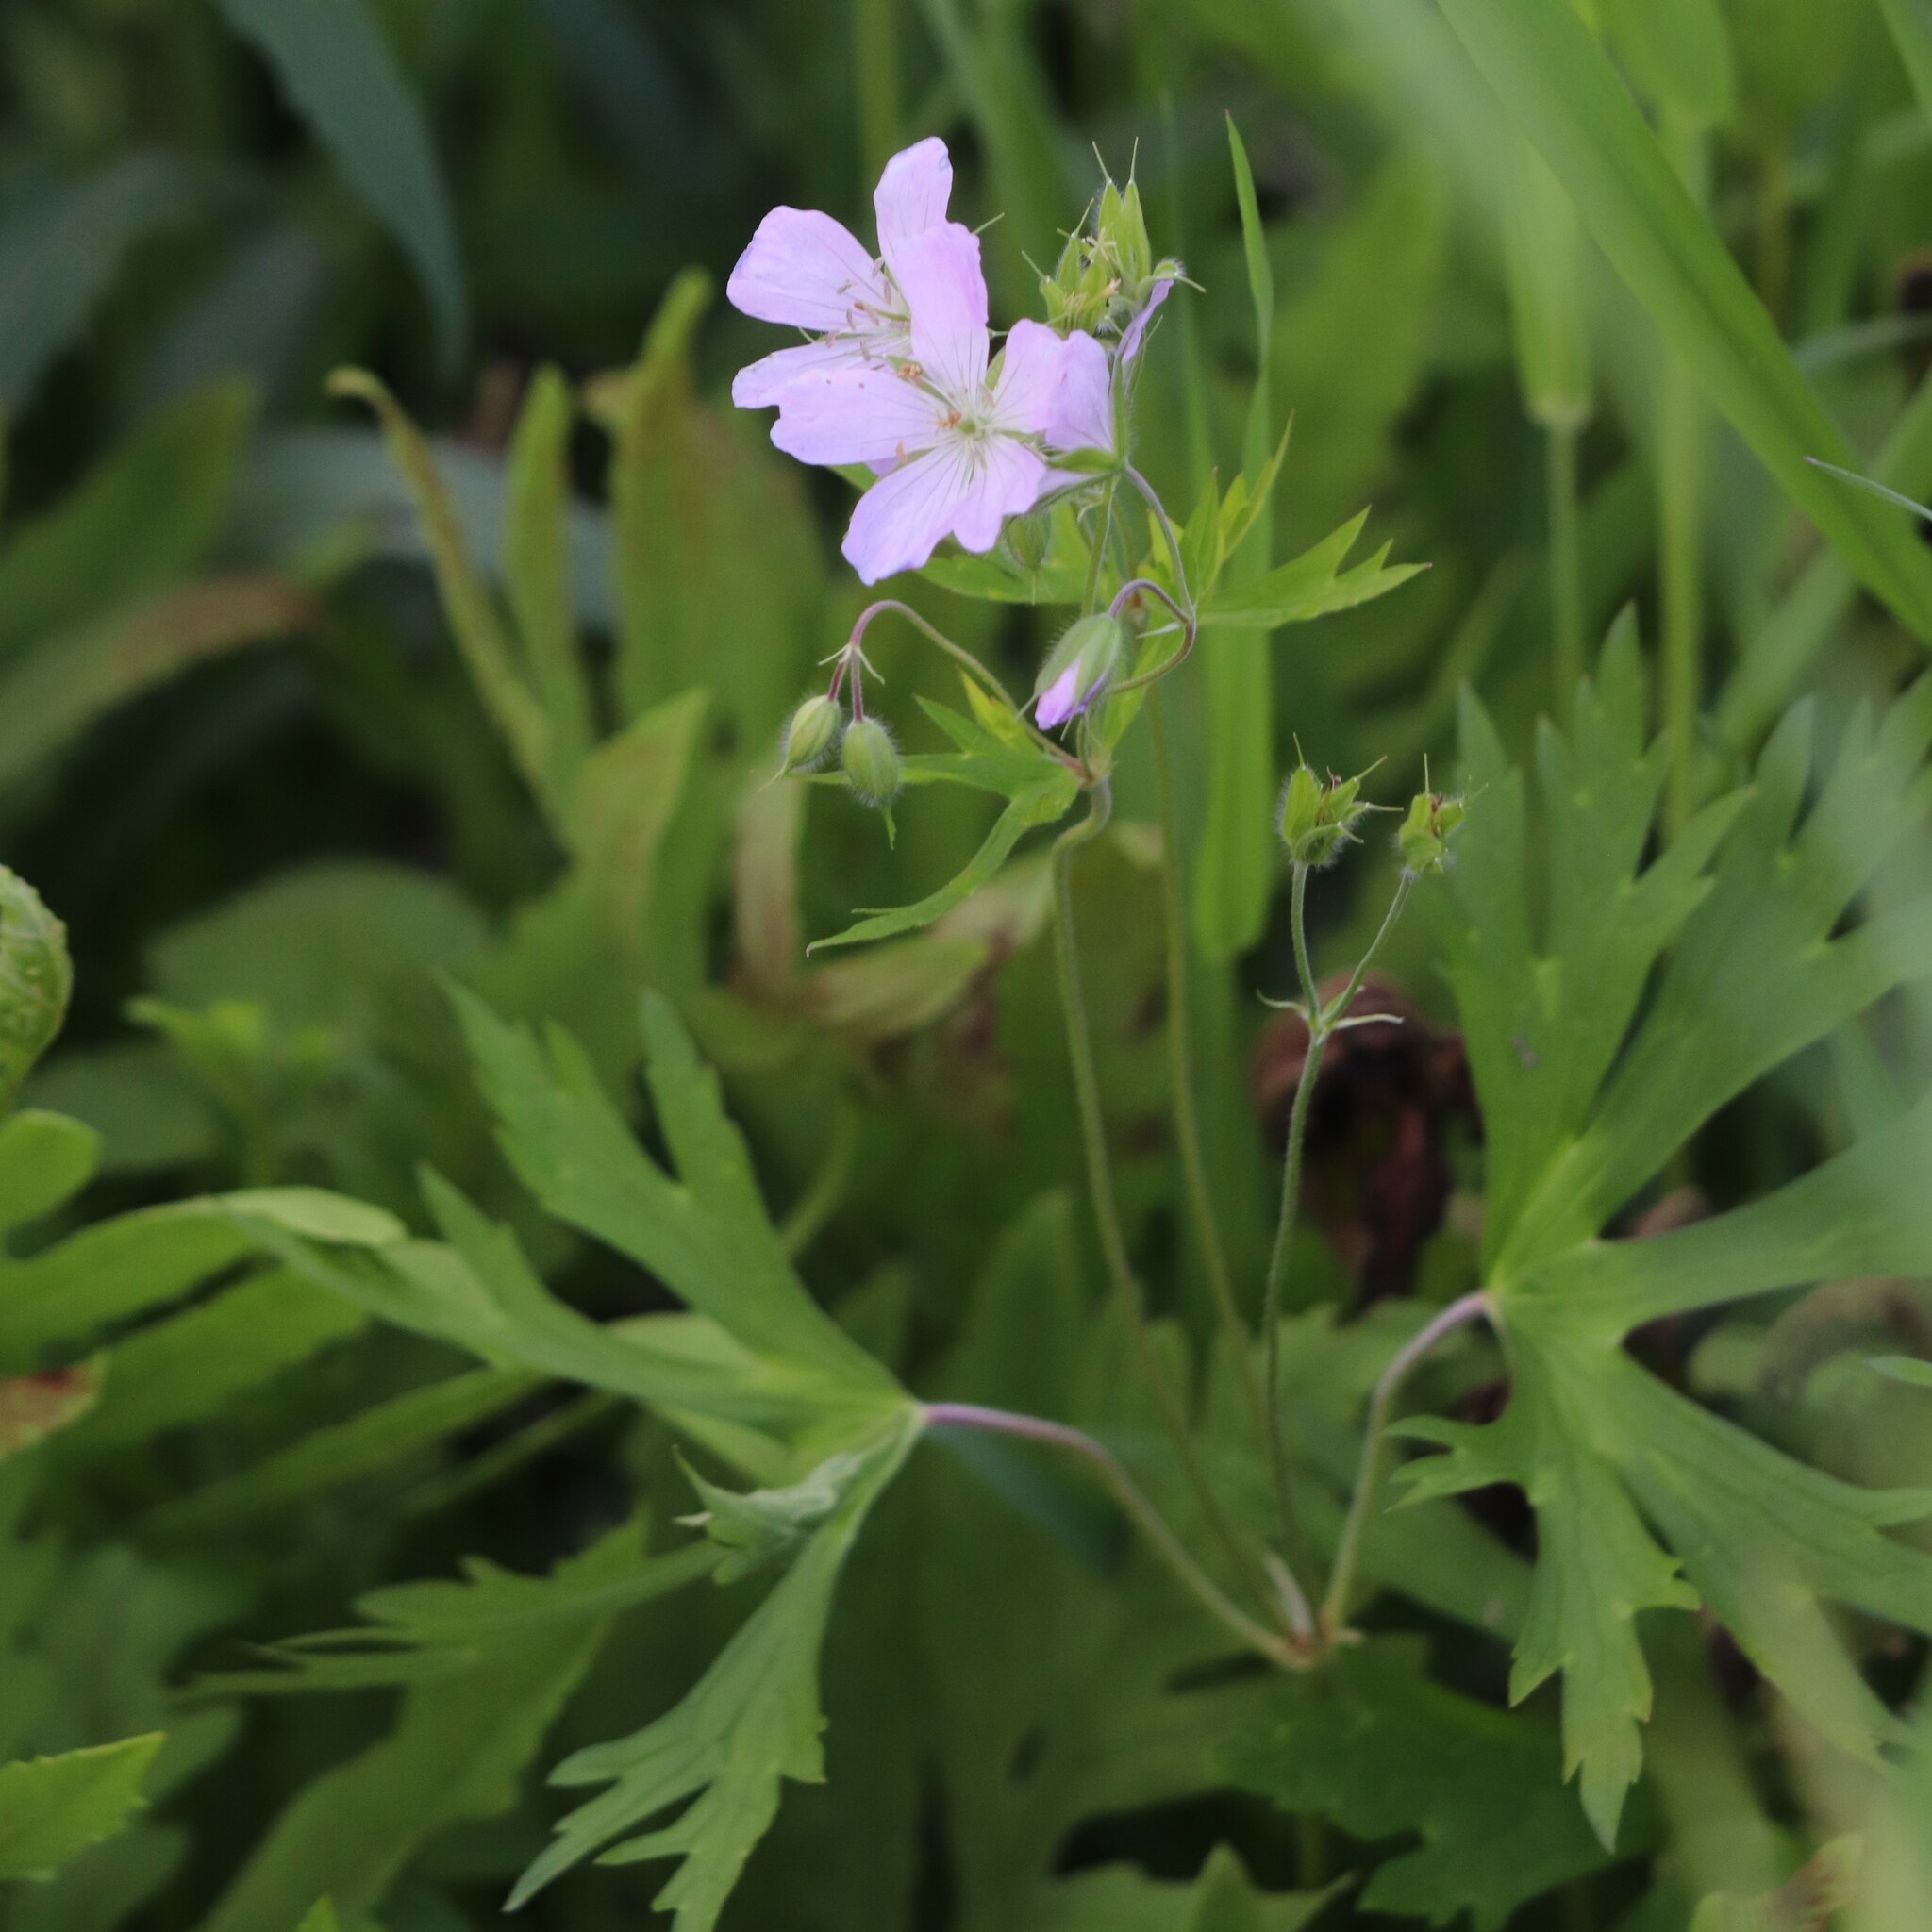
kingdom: Plantae
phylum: Tracheophyta
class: Magnoliopsida
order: Geraniales
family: Geraniaceae
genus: Geranium
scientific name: Geranium maculatum
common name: Spotted geranium
